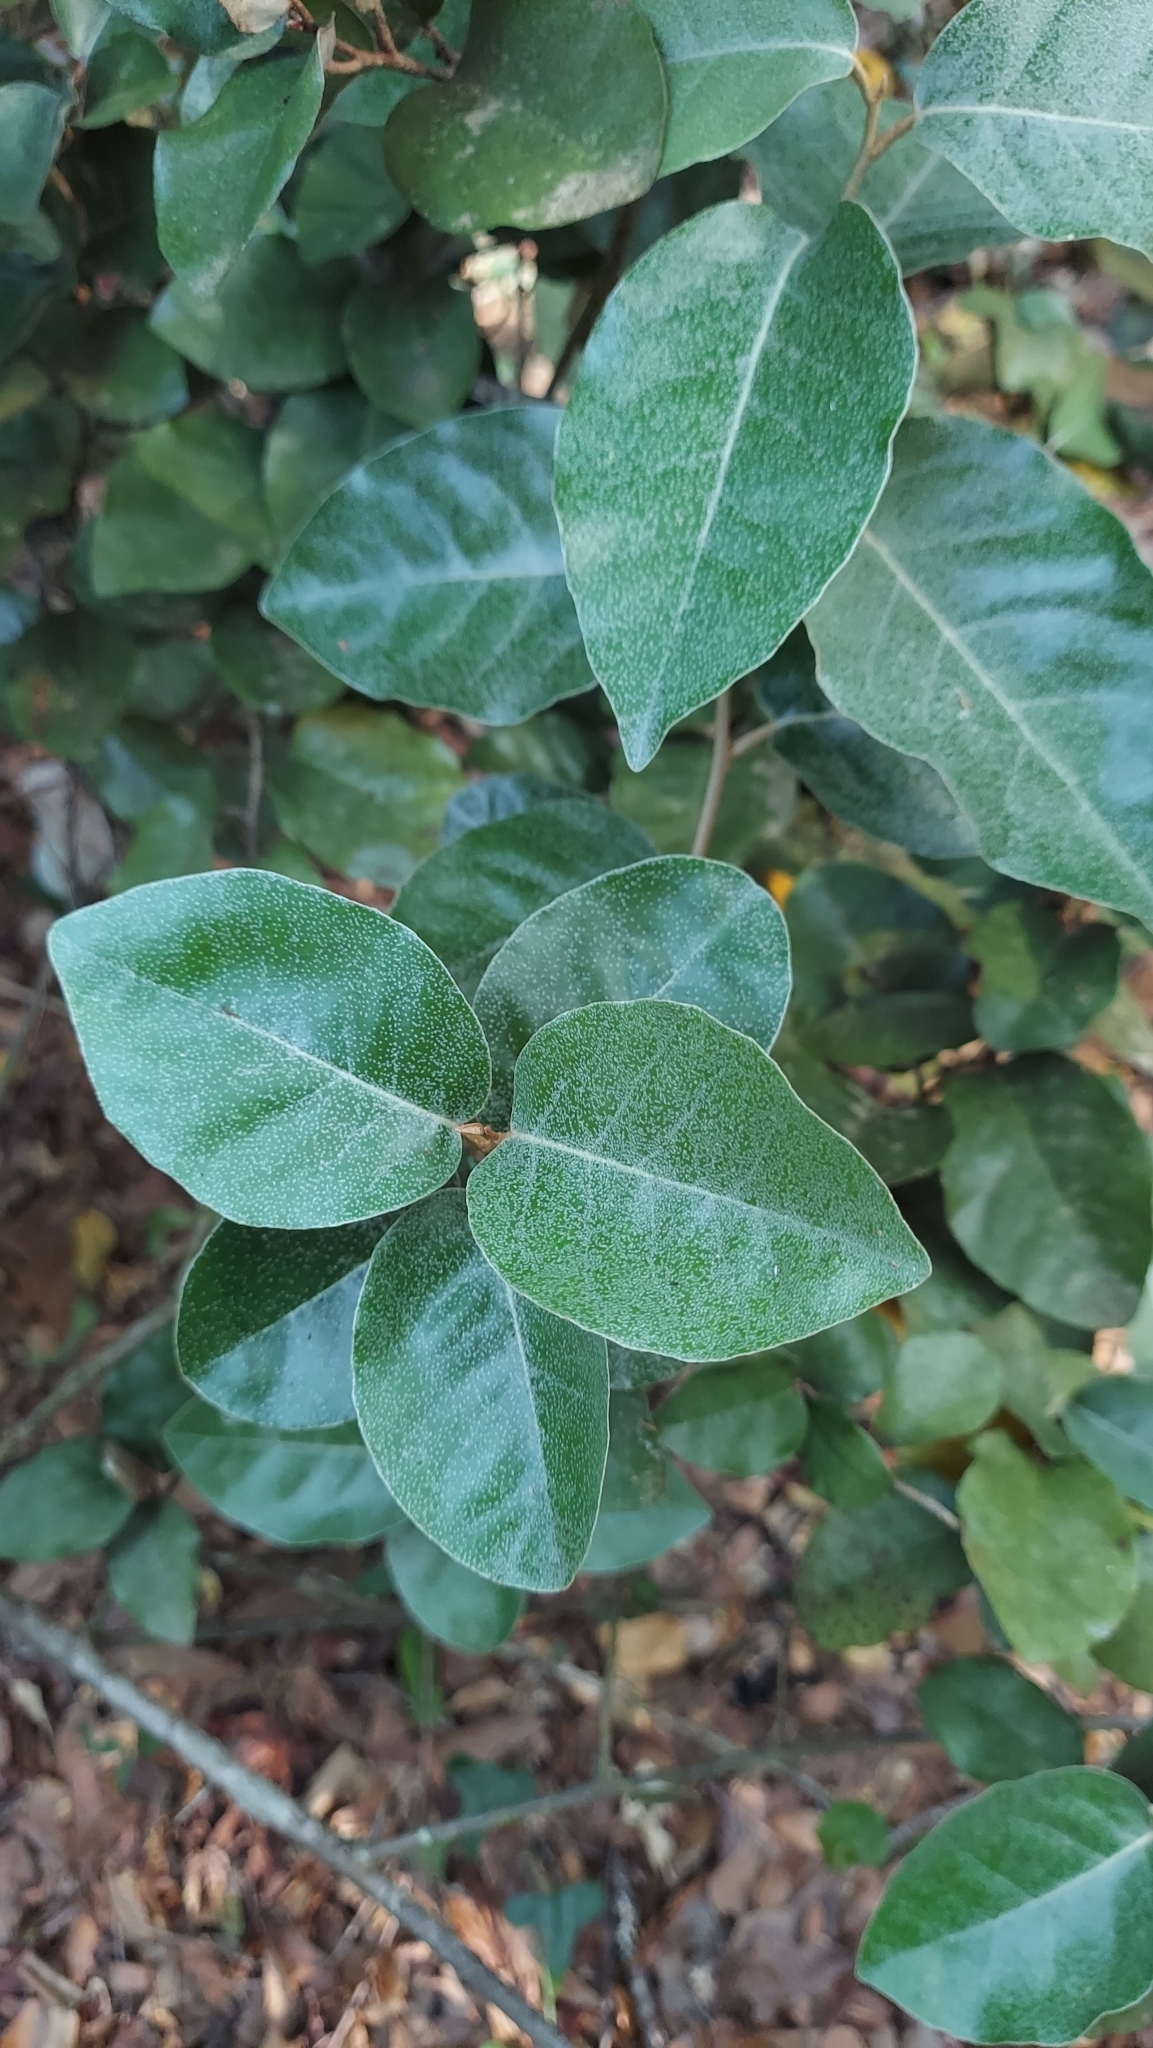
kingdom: Plantae
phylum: Tracheophyta
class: Magnoliopsida
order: Rosales
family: Elaeagnaceae
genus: Elaeagnus
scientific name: Elaeagnus pungens
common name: Spiny oleaster
